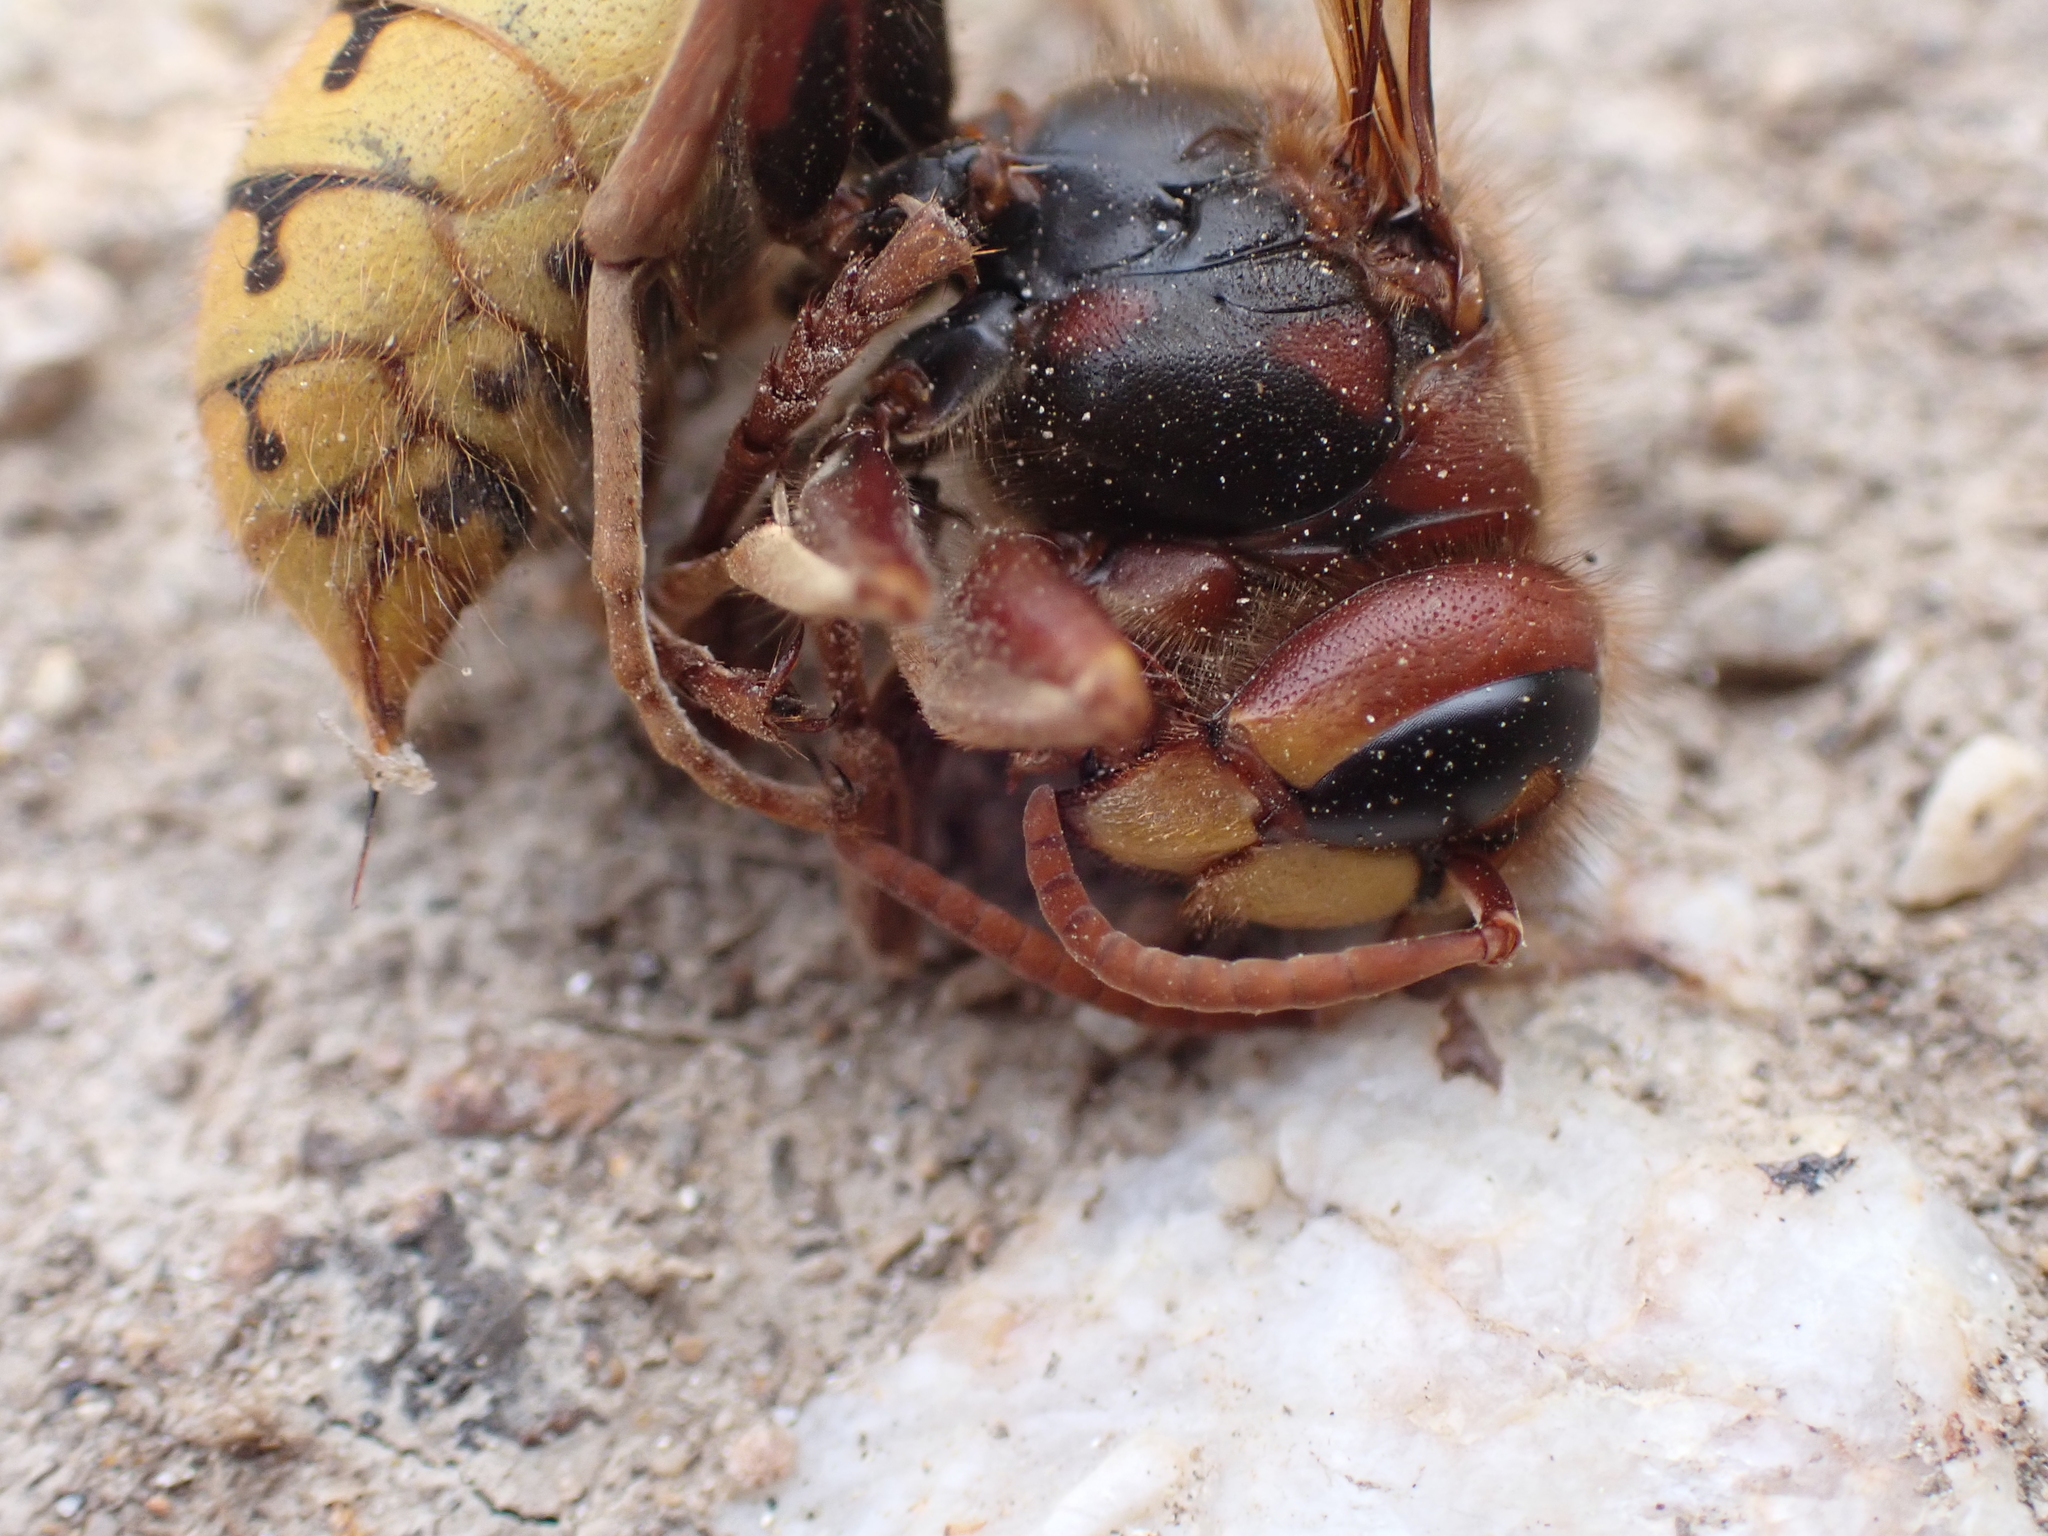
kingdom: Animalia
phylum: Arthropoda
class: Insecta
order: Hymenoptera
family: Vespidae
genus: Vespa
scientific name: Vespa crabro
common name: Hornet
